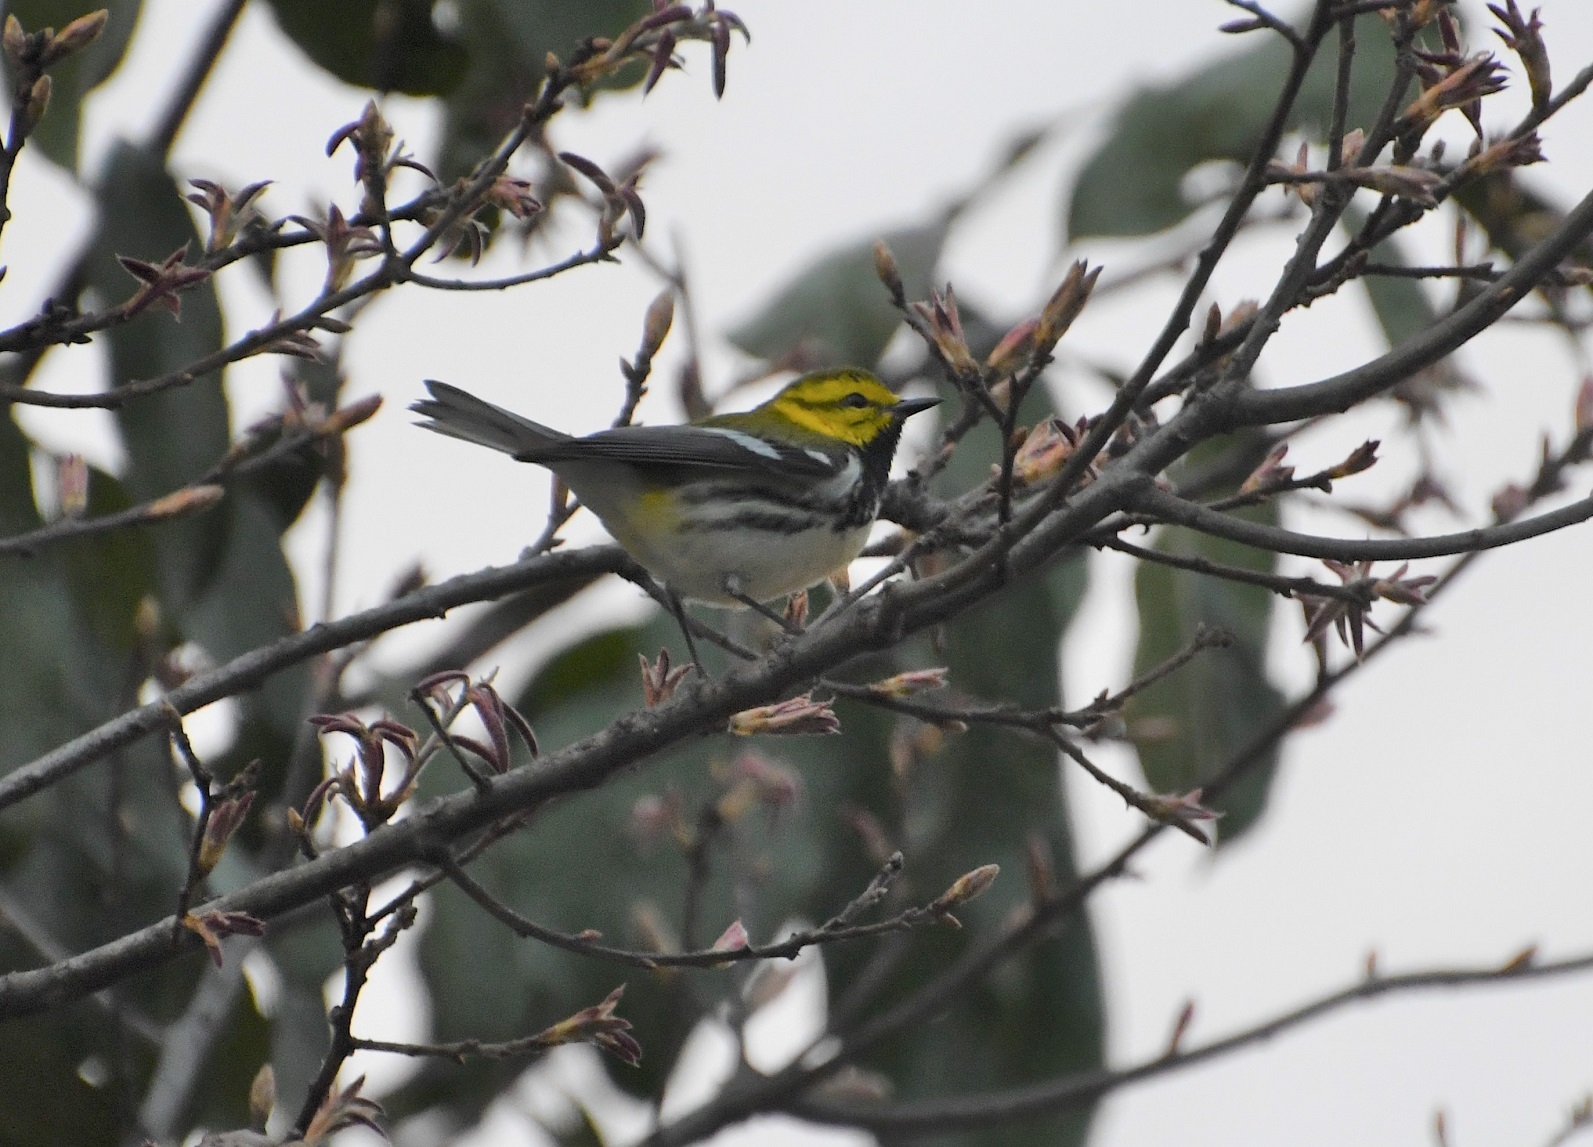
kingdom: Animalia
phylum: Chordata
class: Aves
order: Passeriformes
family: Parulidae
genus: Setophaga
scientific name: Setophaga virens
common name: Black-throated green warbler
